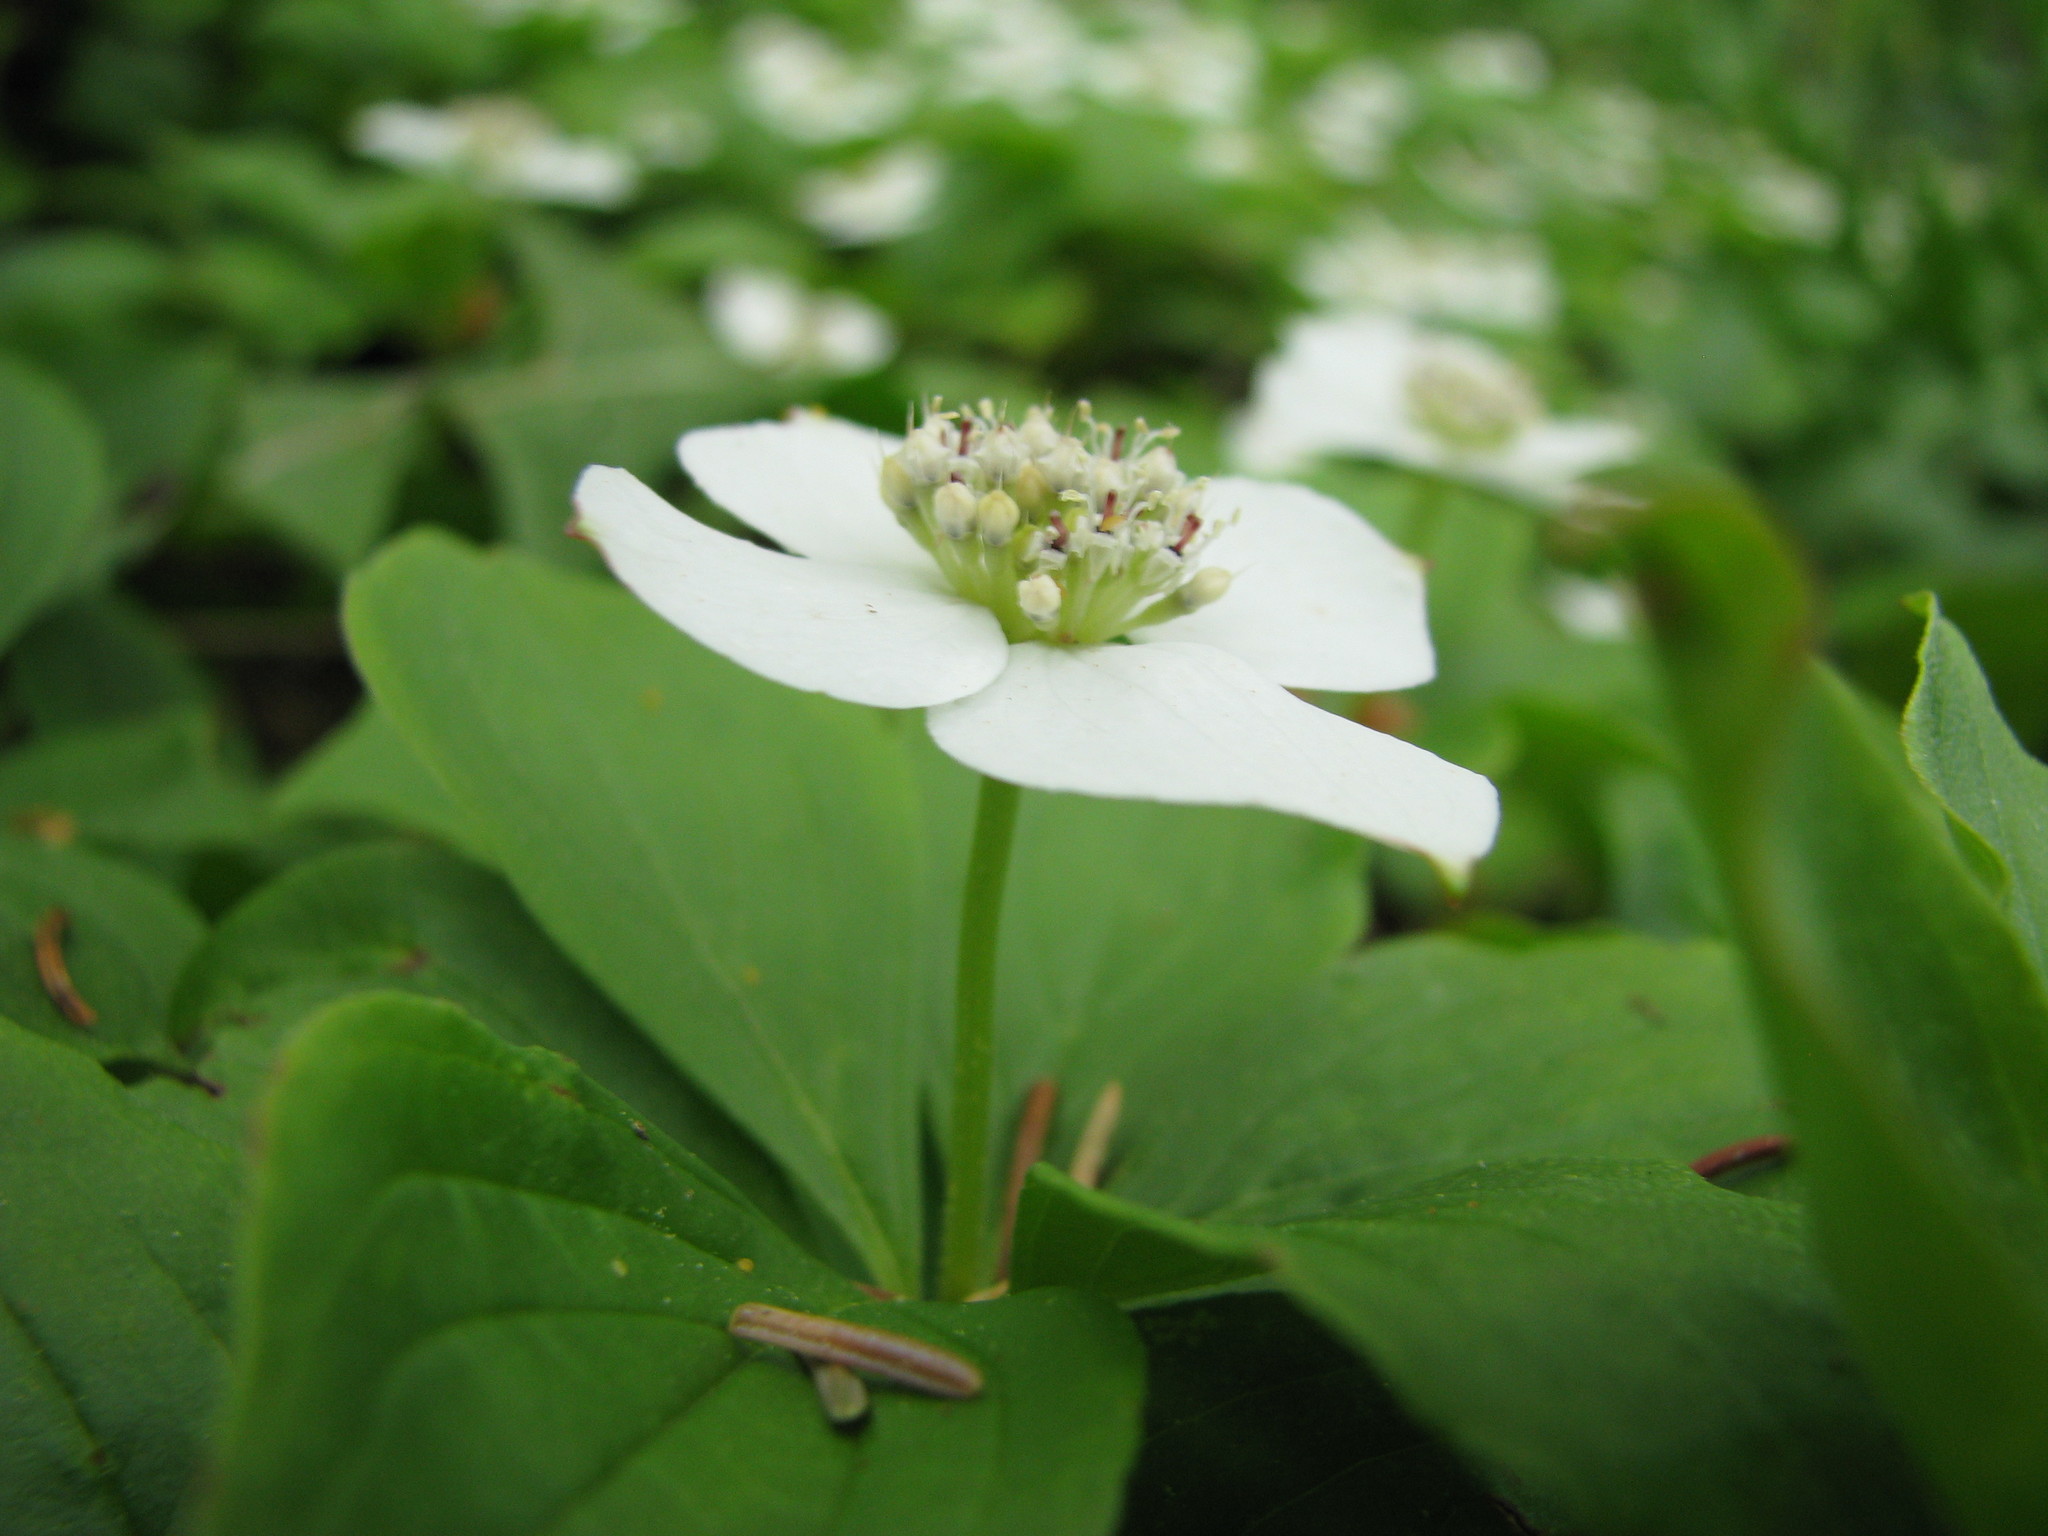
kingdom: Plantae
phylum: Tracheophyta
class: Magnoliopsida
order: Cornales
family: Cornaceae
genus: Cornus
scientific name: Cornus canadensis
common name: Creeping dogwood
